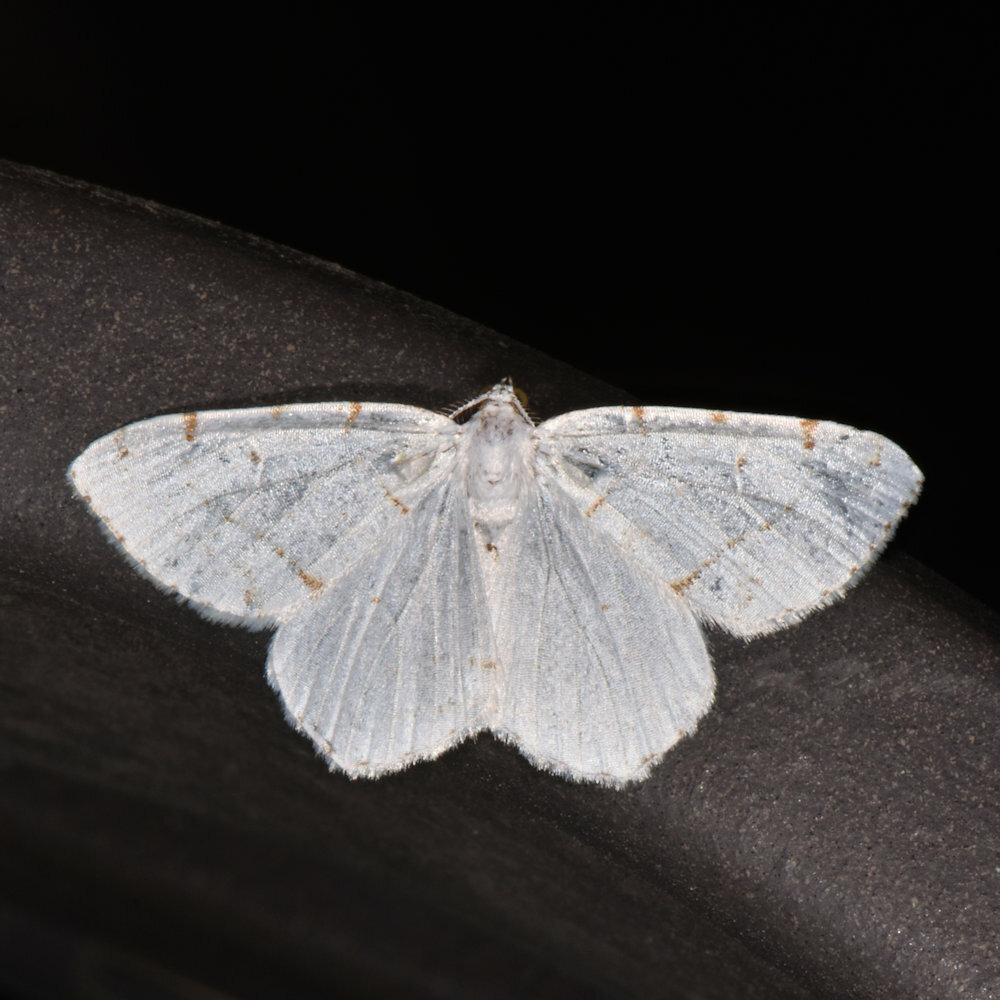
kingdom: Animalia
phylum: Arthropoda
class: Insecta
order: Lepidoptera
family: Geometridae
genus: Macaria
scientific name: Macaria pustularia
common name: Lesser maple spanworm moth
